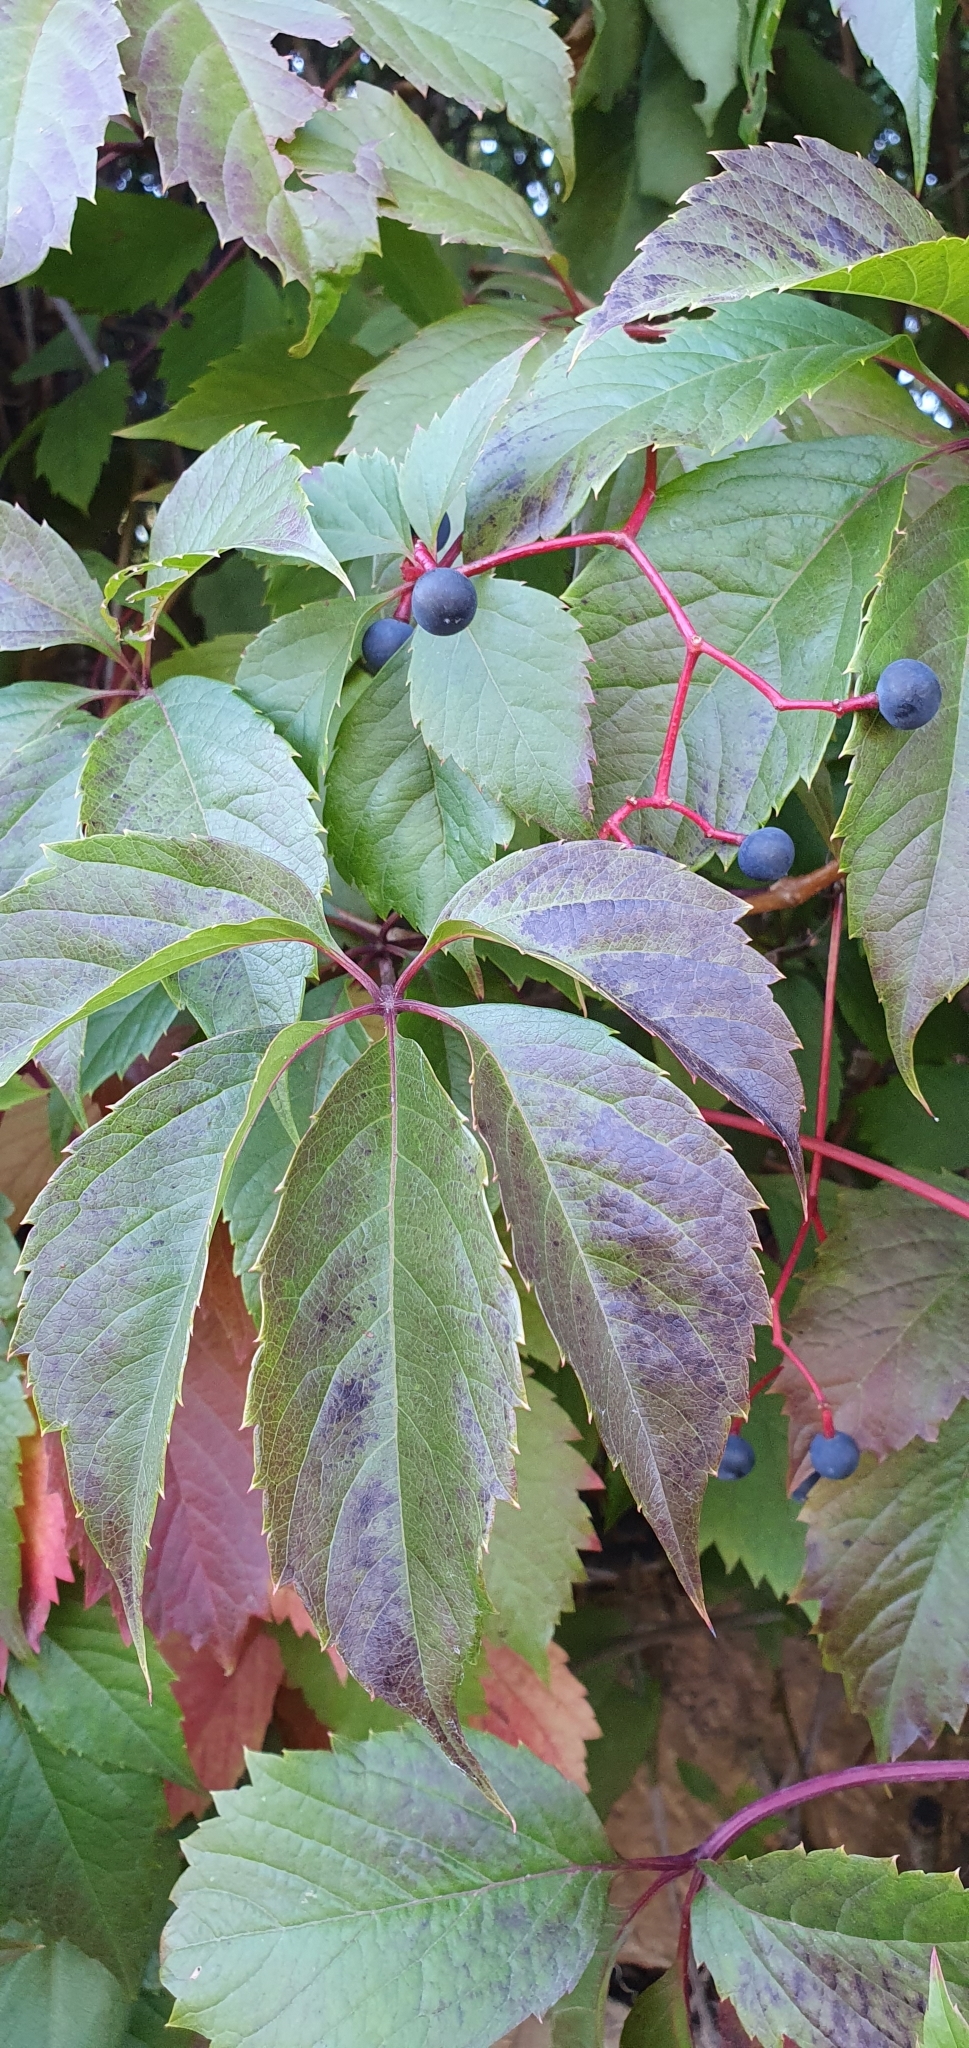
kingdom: Plantae
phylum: Tracheophyta
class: Magnoliopsida
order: Vitales
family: Vitaceae
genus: Parthenocissus
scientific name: Parthenocissus inserta
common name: False virginia-creeper
